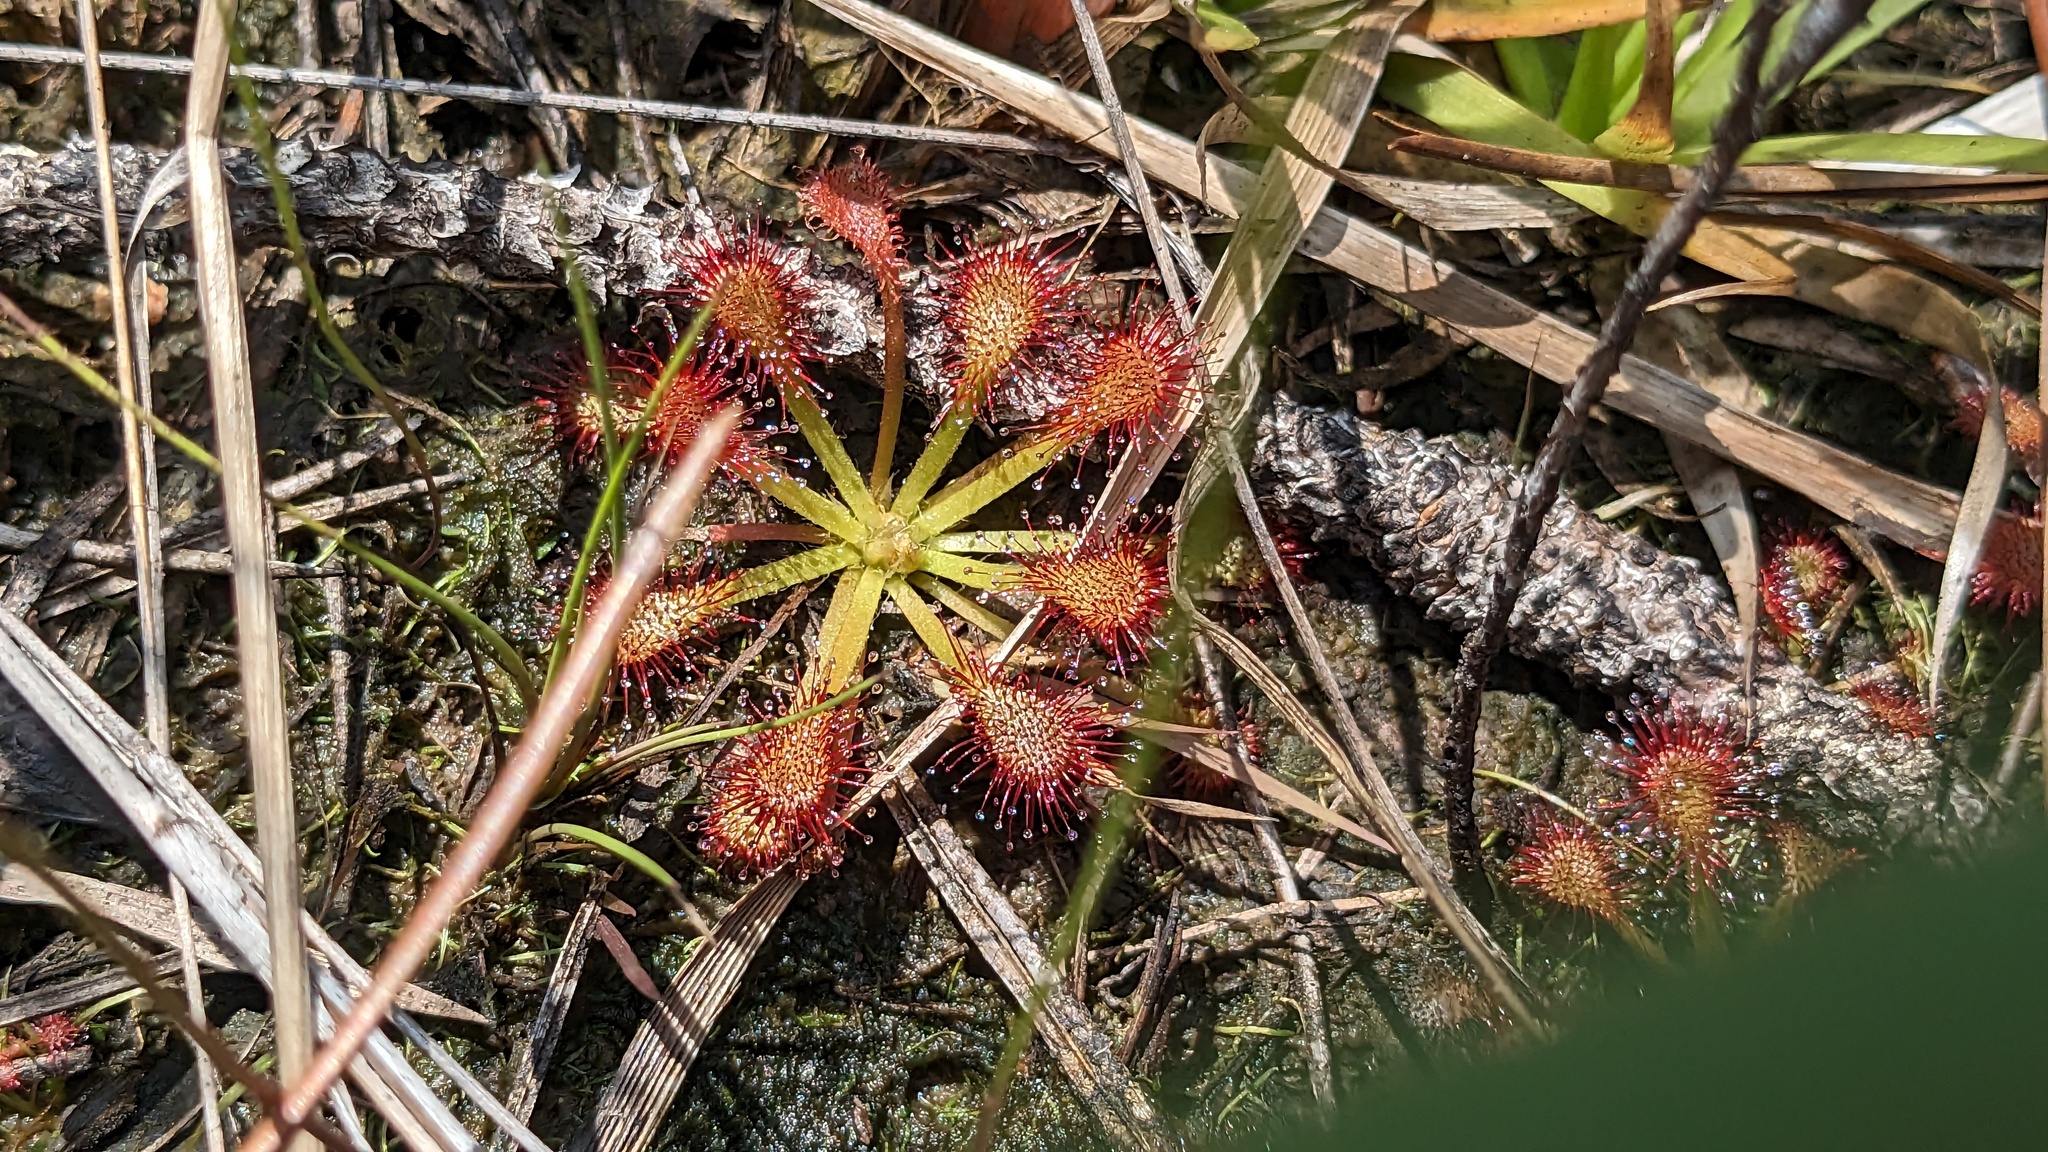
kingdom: Plantae
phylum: Tracheophyta
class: Magnoliopsida
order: Caryophyllales
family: Droseraceae
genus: Drosera
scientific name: Drosera capillaris
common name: Pink sundew
